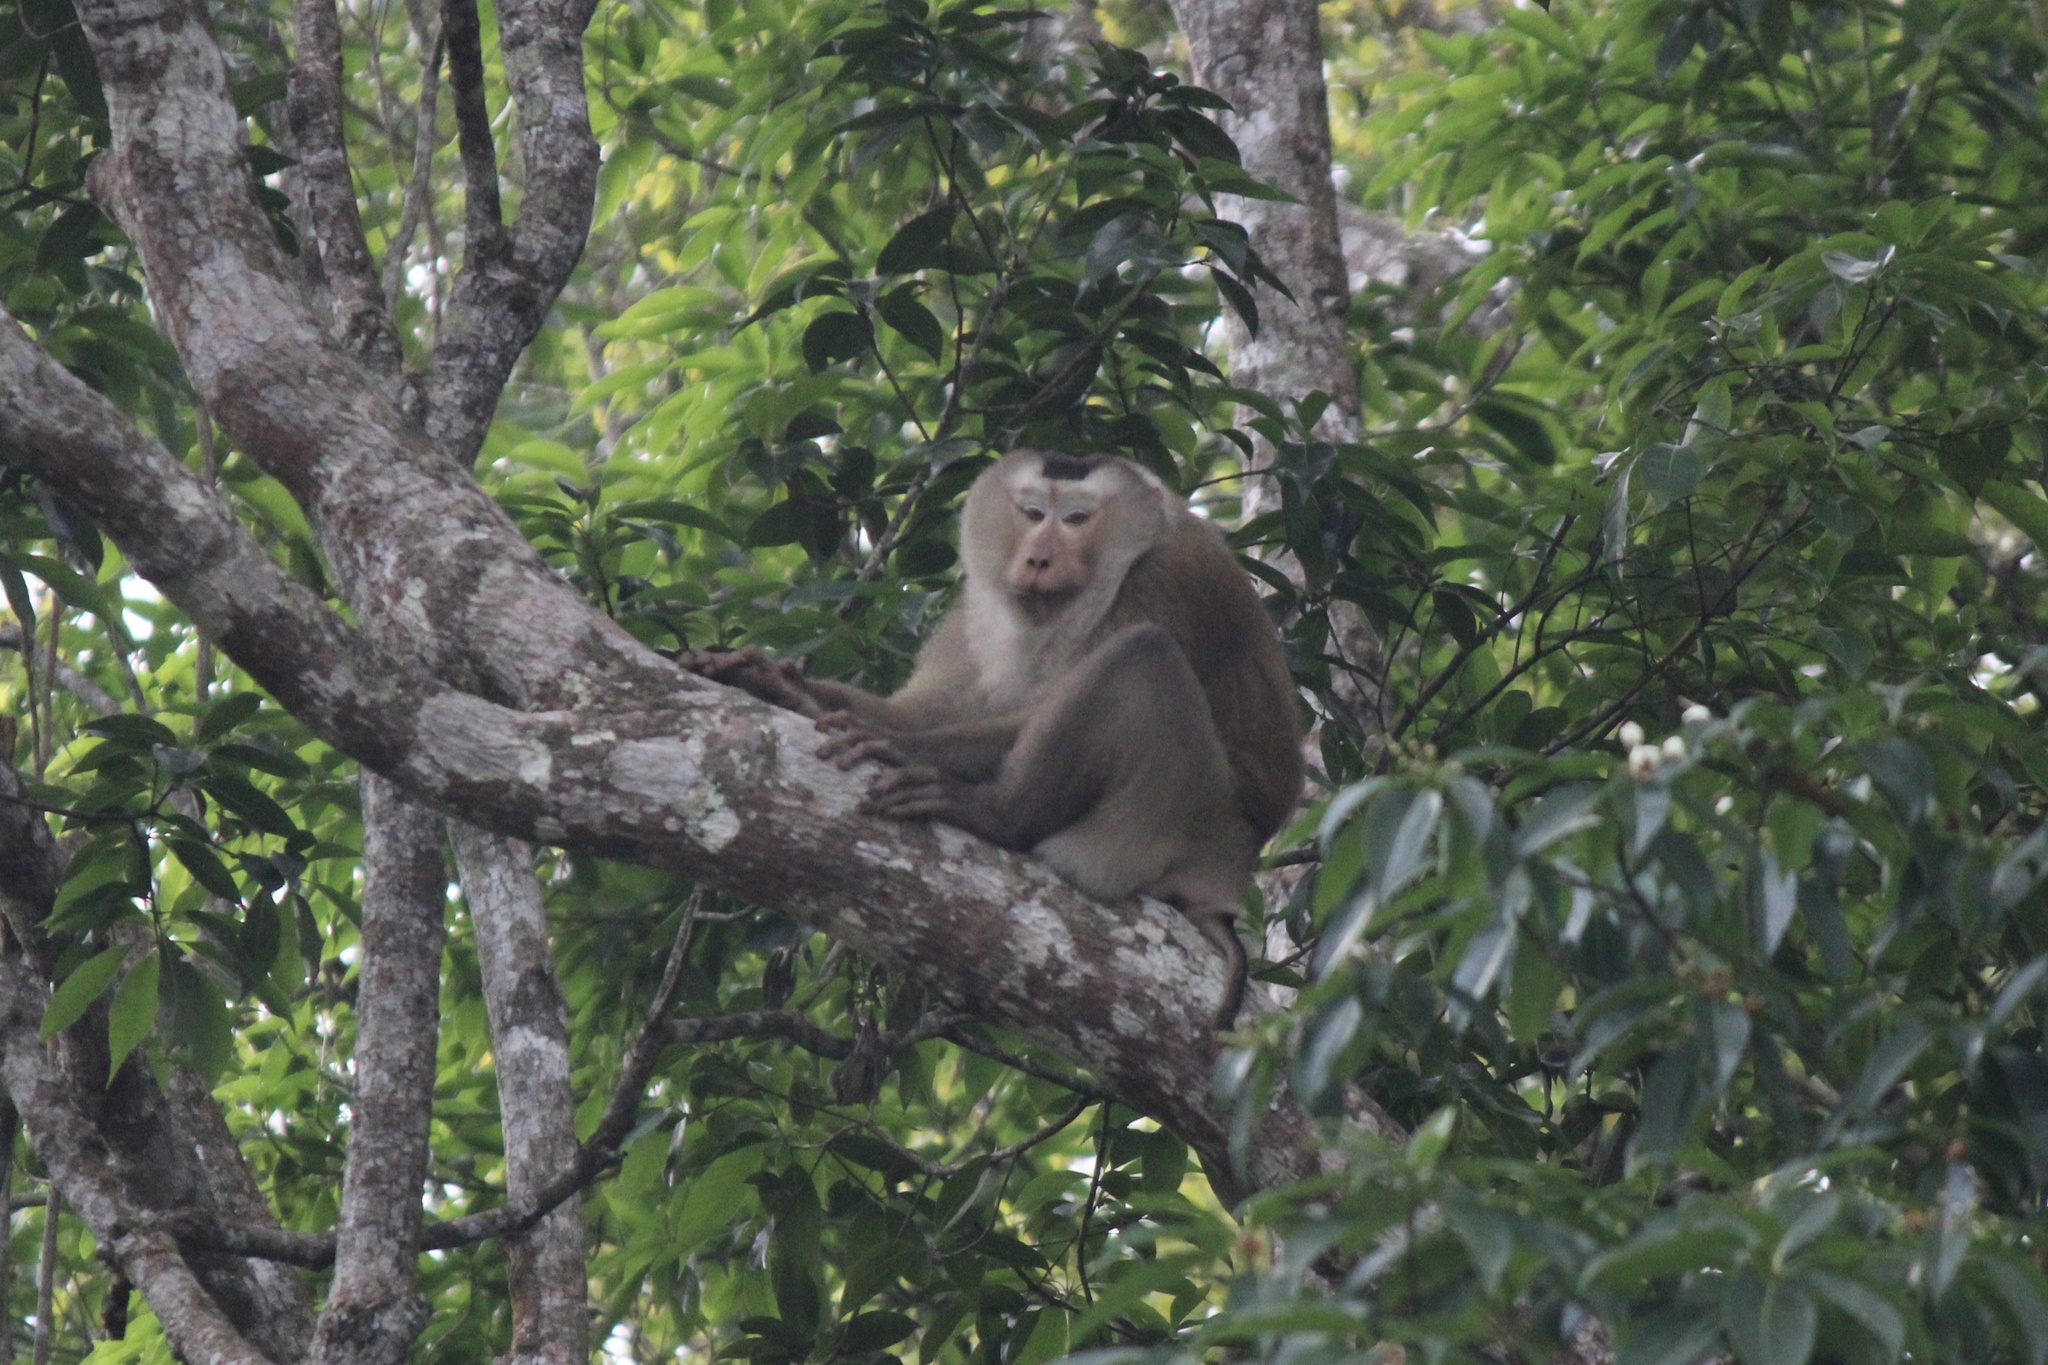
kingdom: Animalia
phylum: Chordata
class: Mammalia
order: Primates
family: Cercopithecidae
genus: Macaca
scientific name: Macaca leonina
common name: Northern pig-tailed macaque
